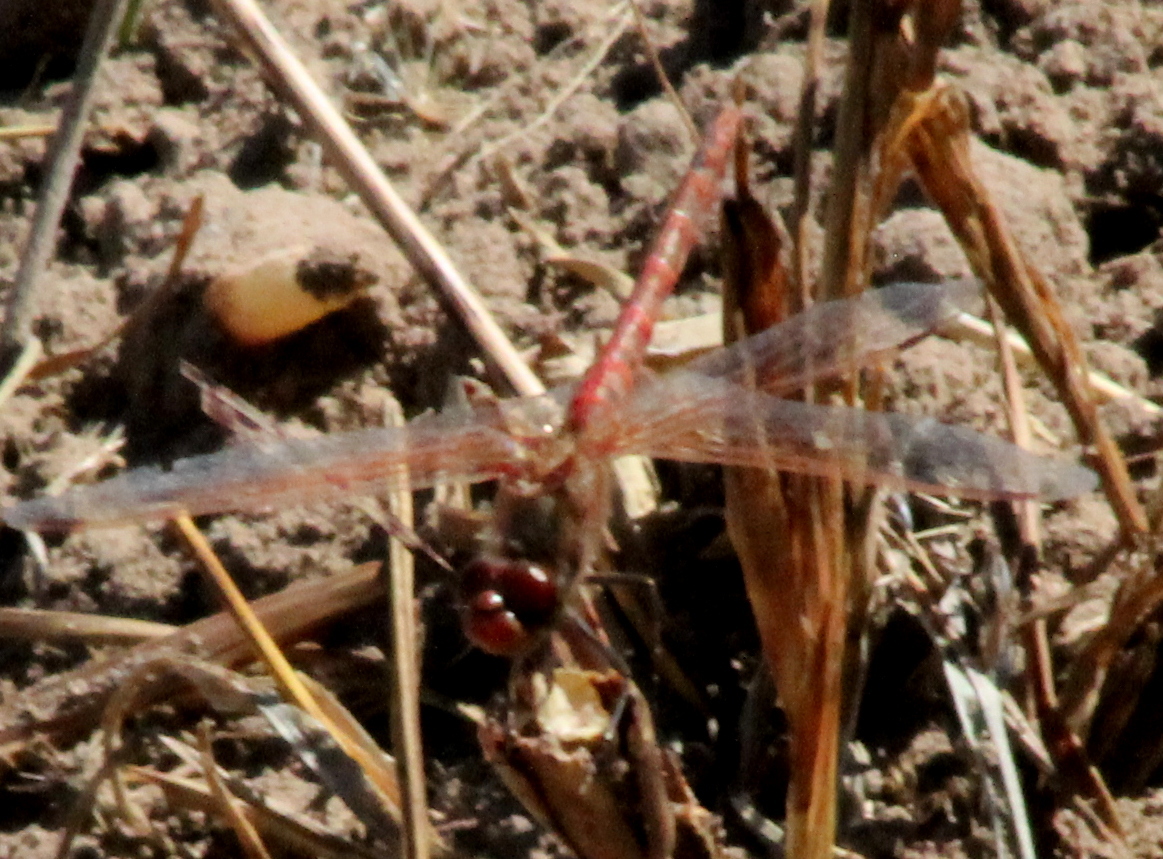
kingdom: Animalia
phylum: Arthropoda
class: Insecta
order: Odonata
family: Libellulidae
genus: Sympetrum
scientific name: Sympetrum corruptum
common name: Variegated meadowhawk
